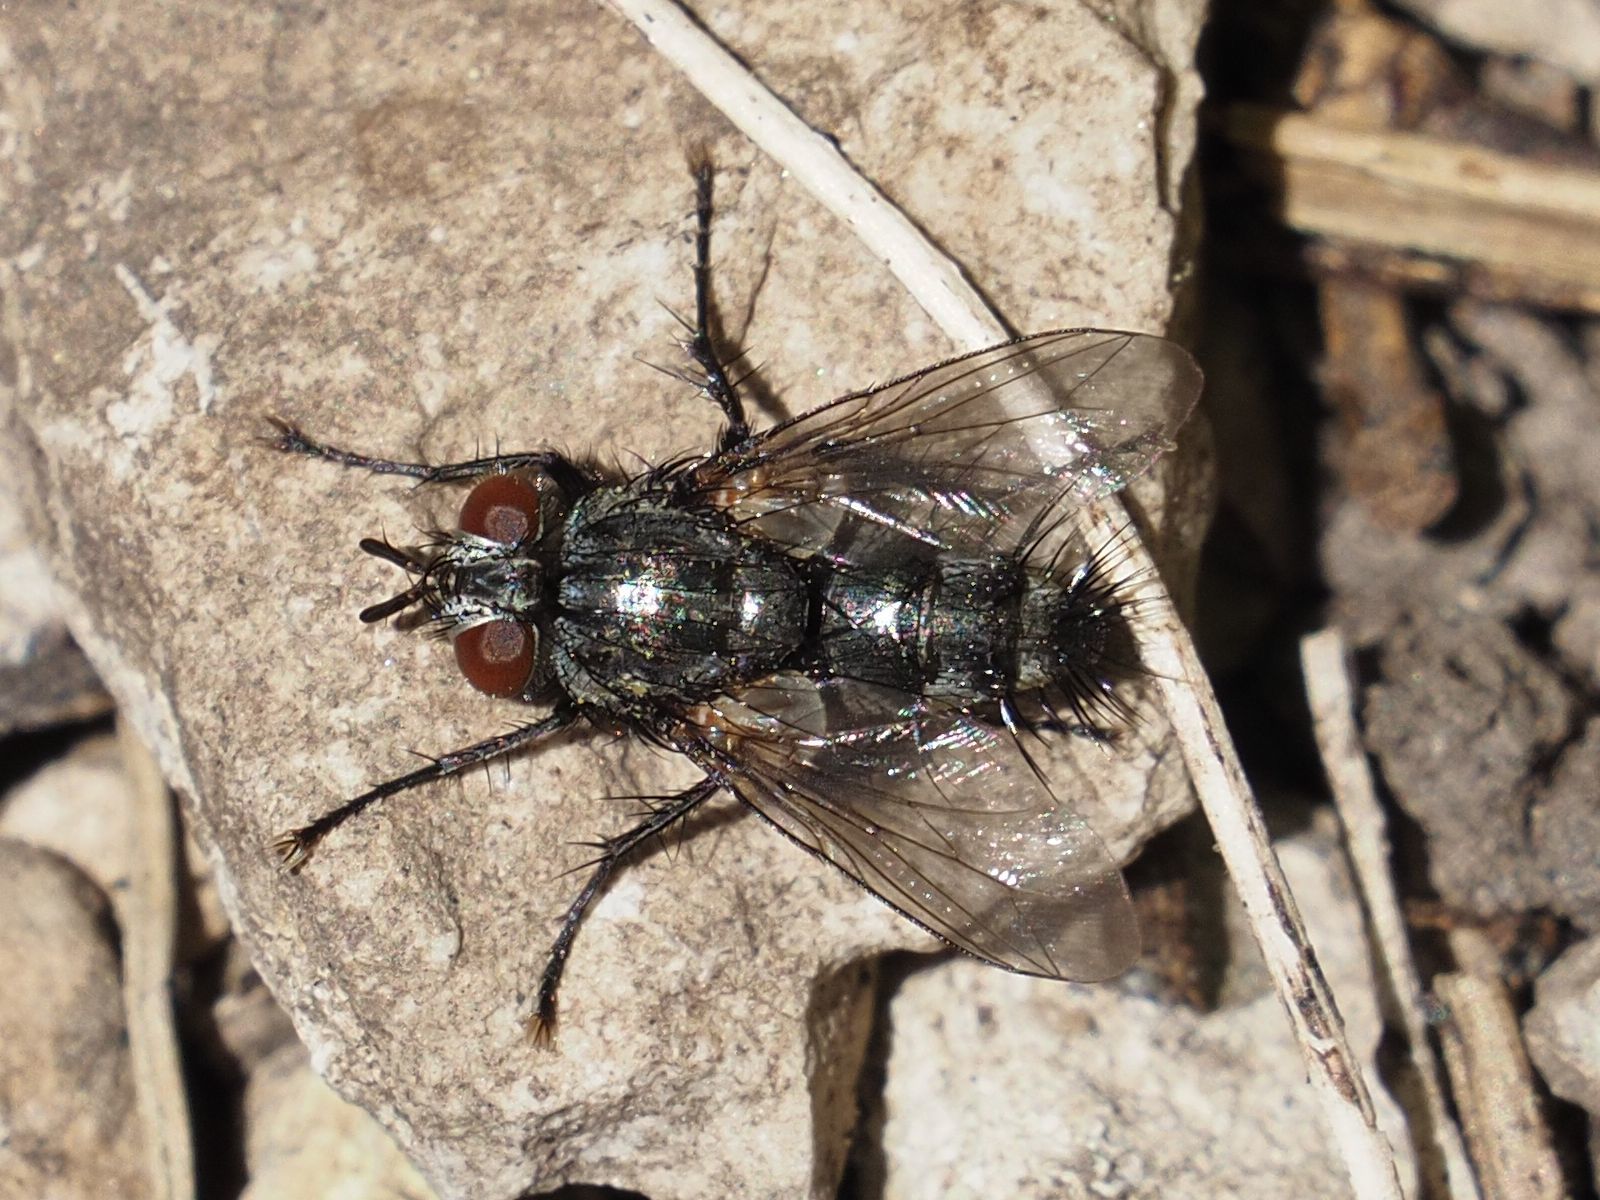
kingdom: Animalia
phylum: Arthropoda
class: Insecta
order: Diptera
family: Tachinidae
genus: Voria
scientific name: Voria ruralis
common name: Parasitic fly
